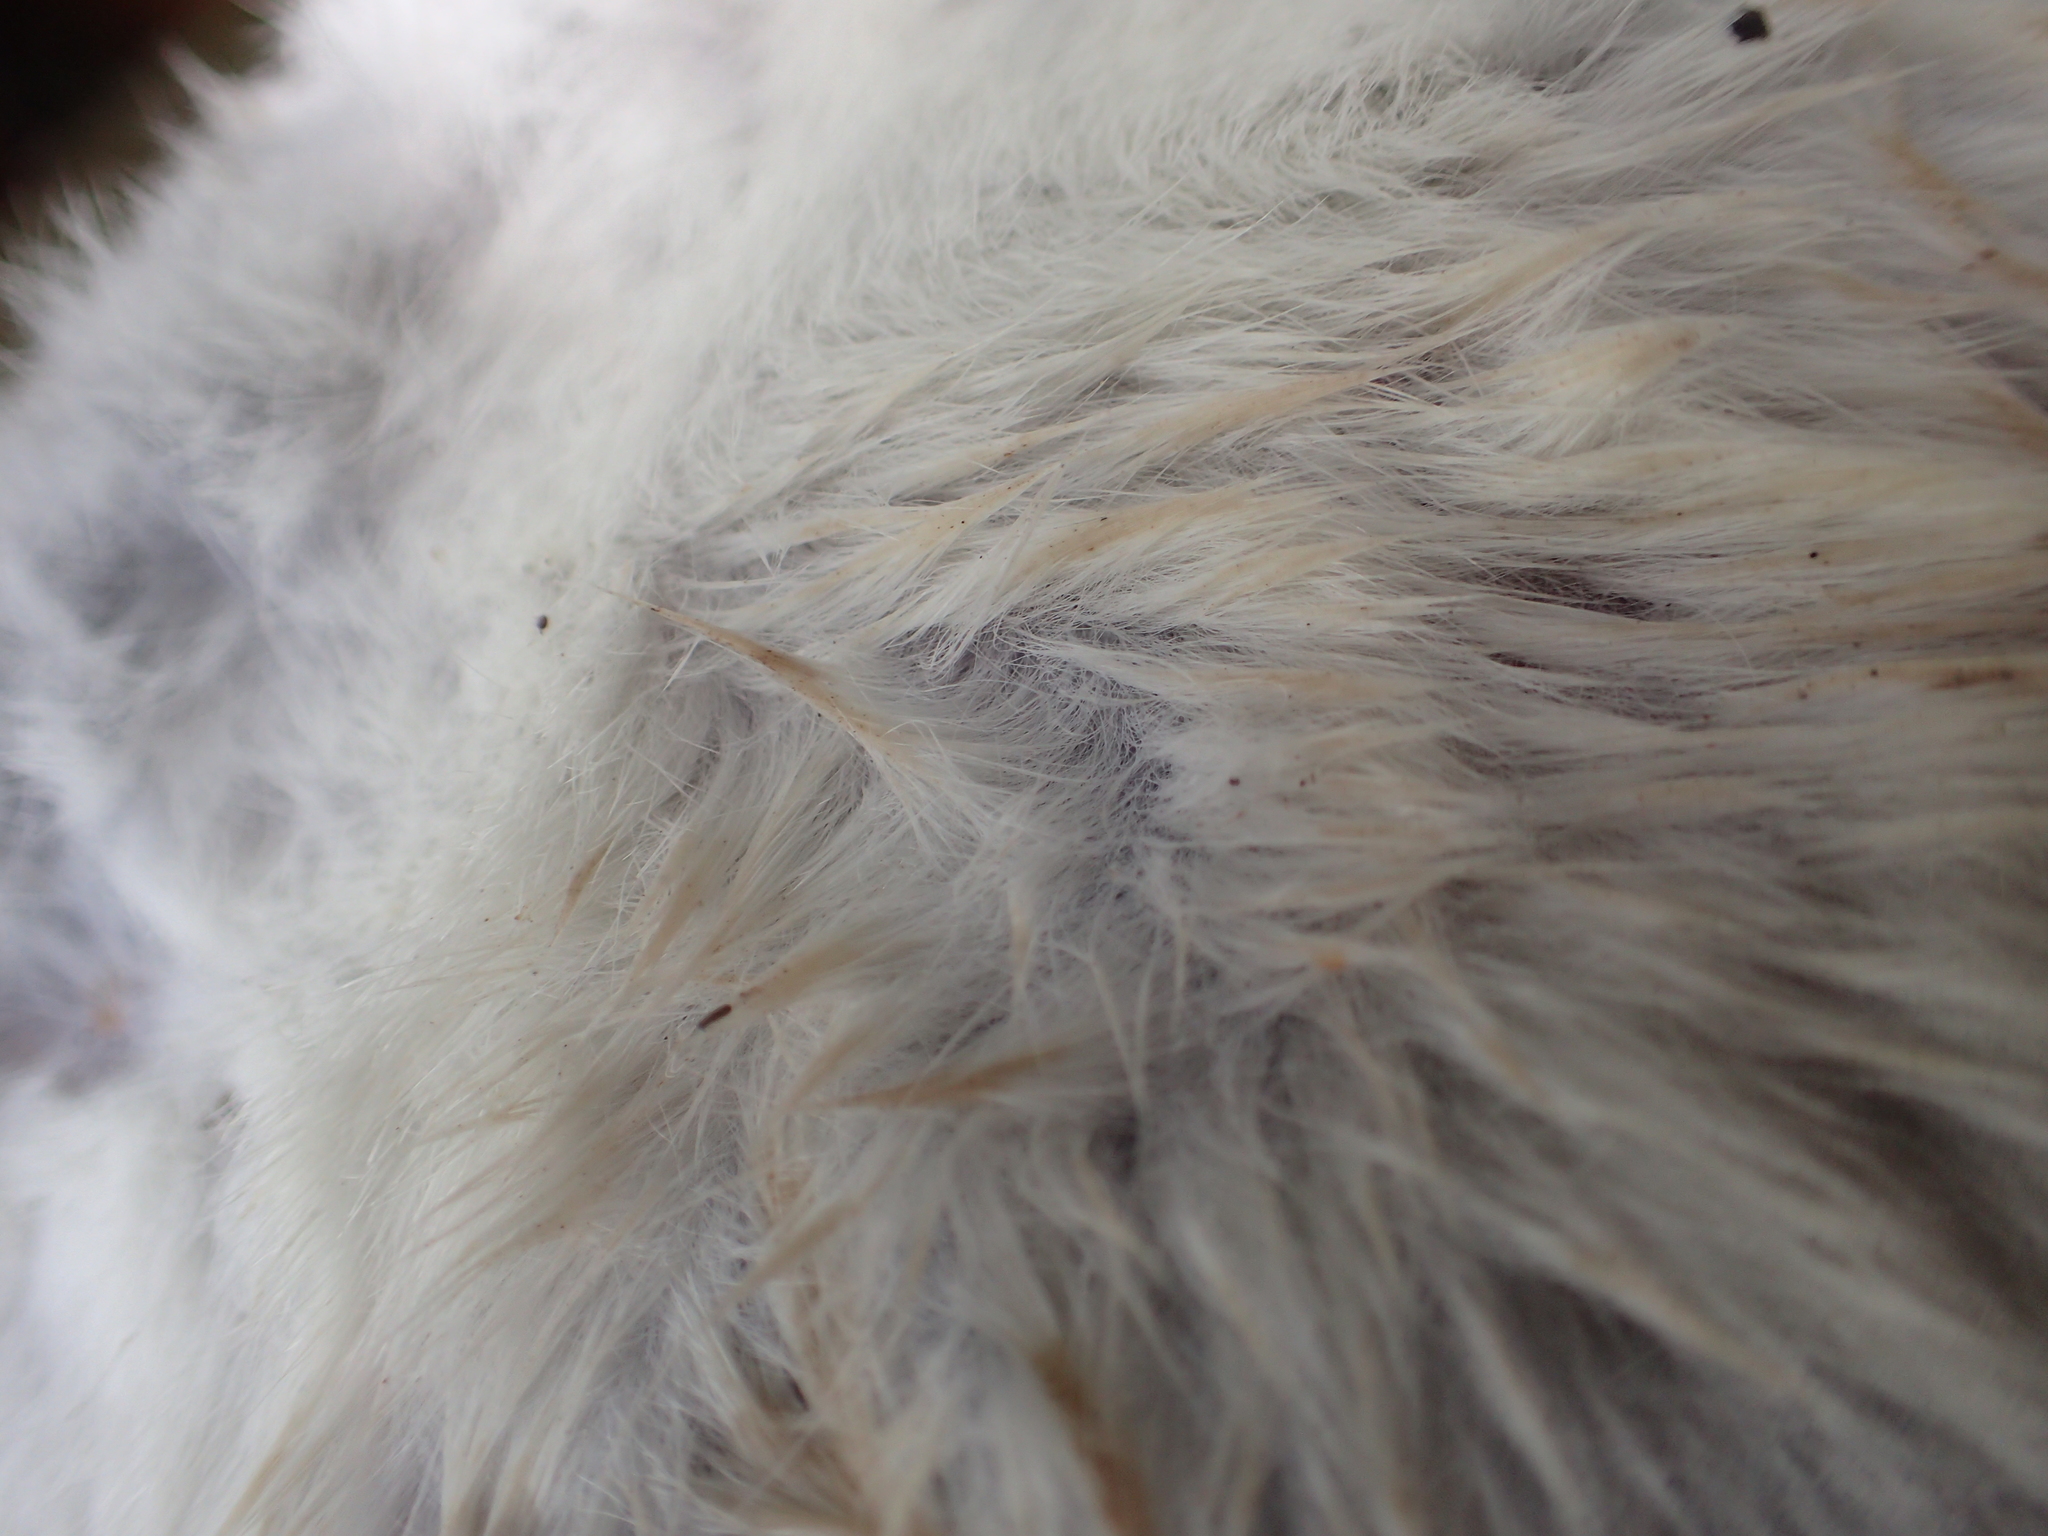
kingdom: Animalia
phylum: Chordata
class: Mammalia
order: Rodentia
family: Muridae
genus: Rattus
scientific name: Rattus rattus
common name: Black rat
